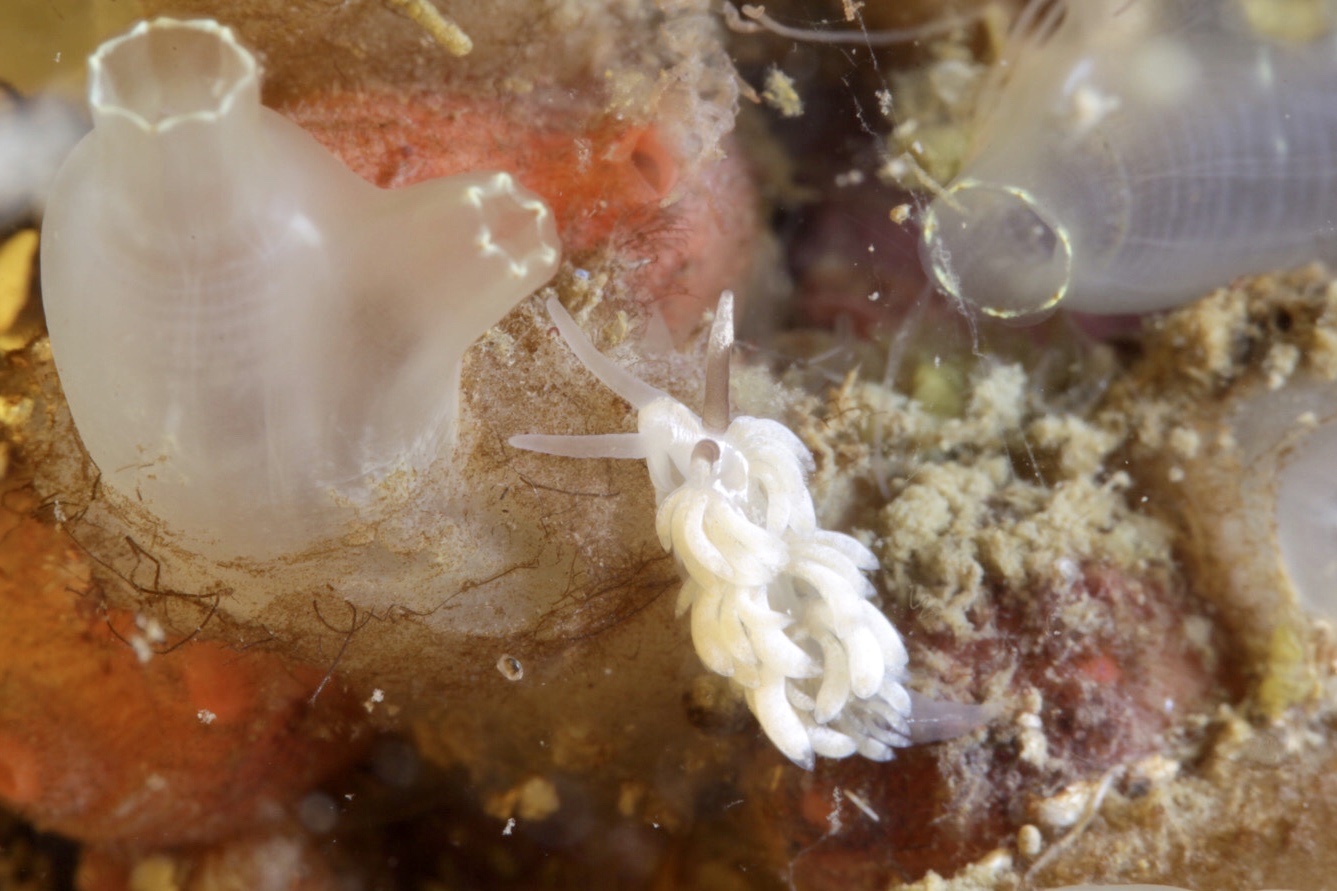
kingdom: Animalia
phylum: Mollusca
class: Gastropoda
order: Nudibranchia
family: Facelinidae
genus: Favorinus
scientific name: Favorinus branchialis
